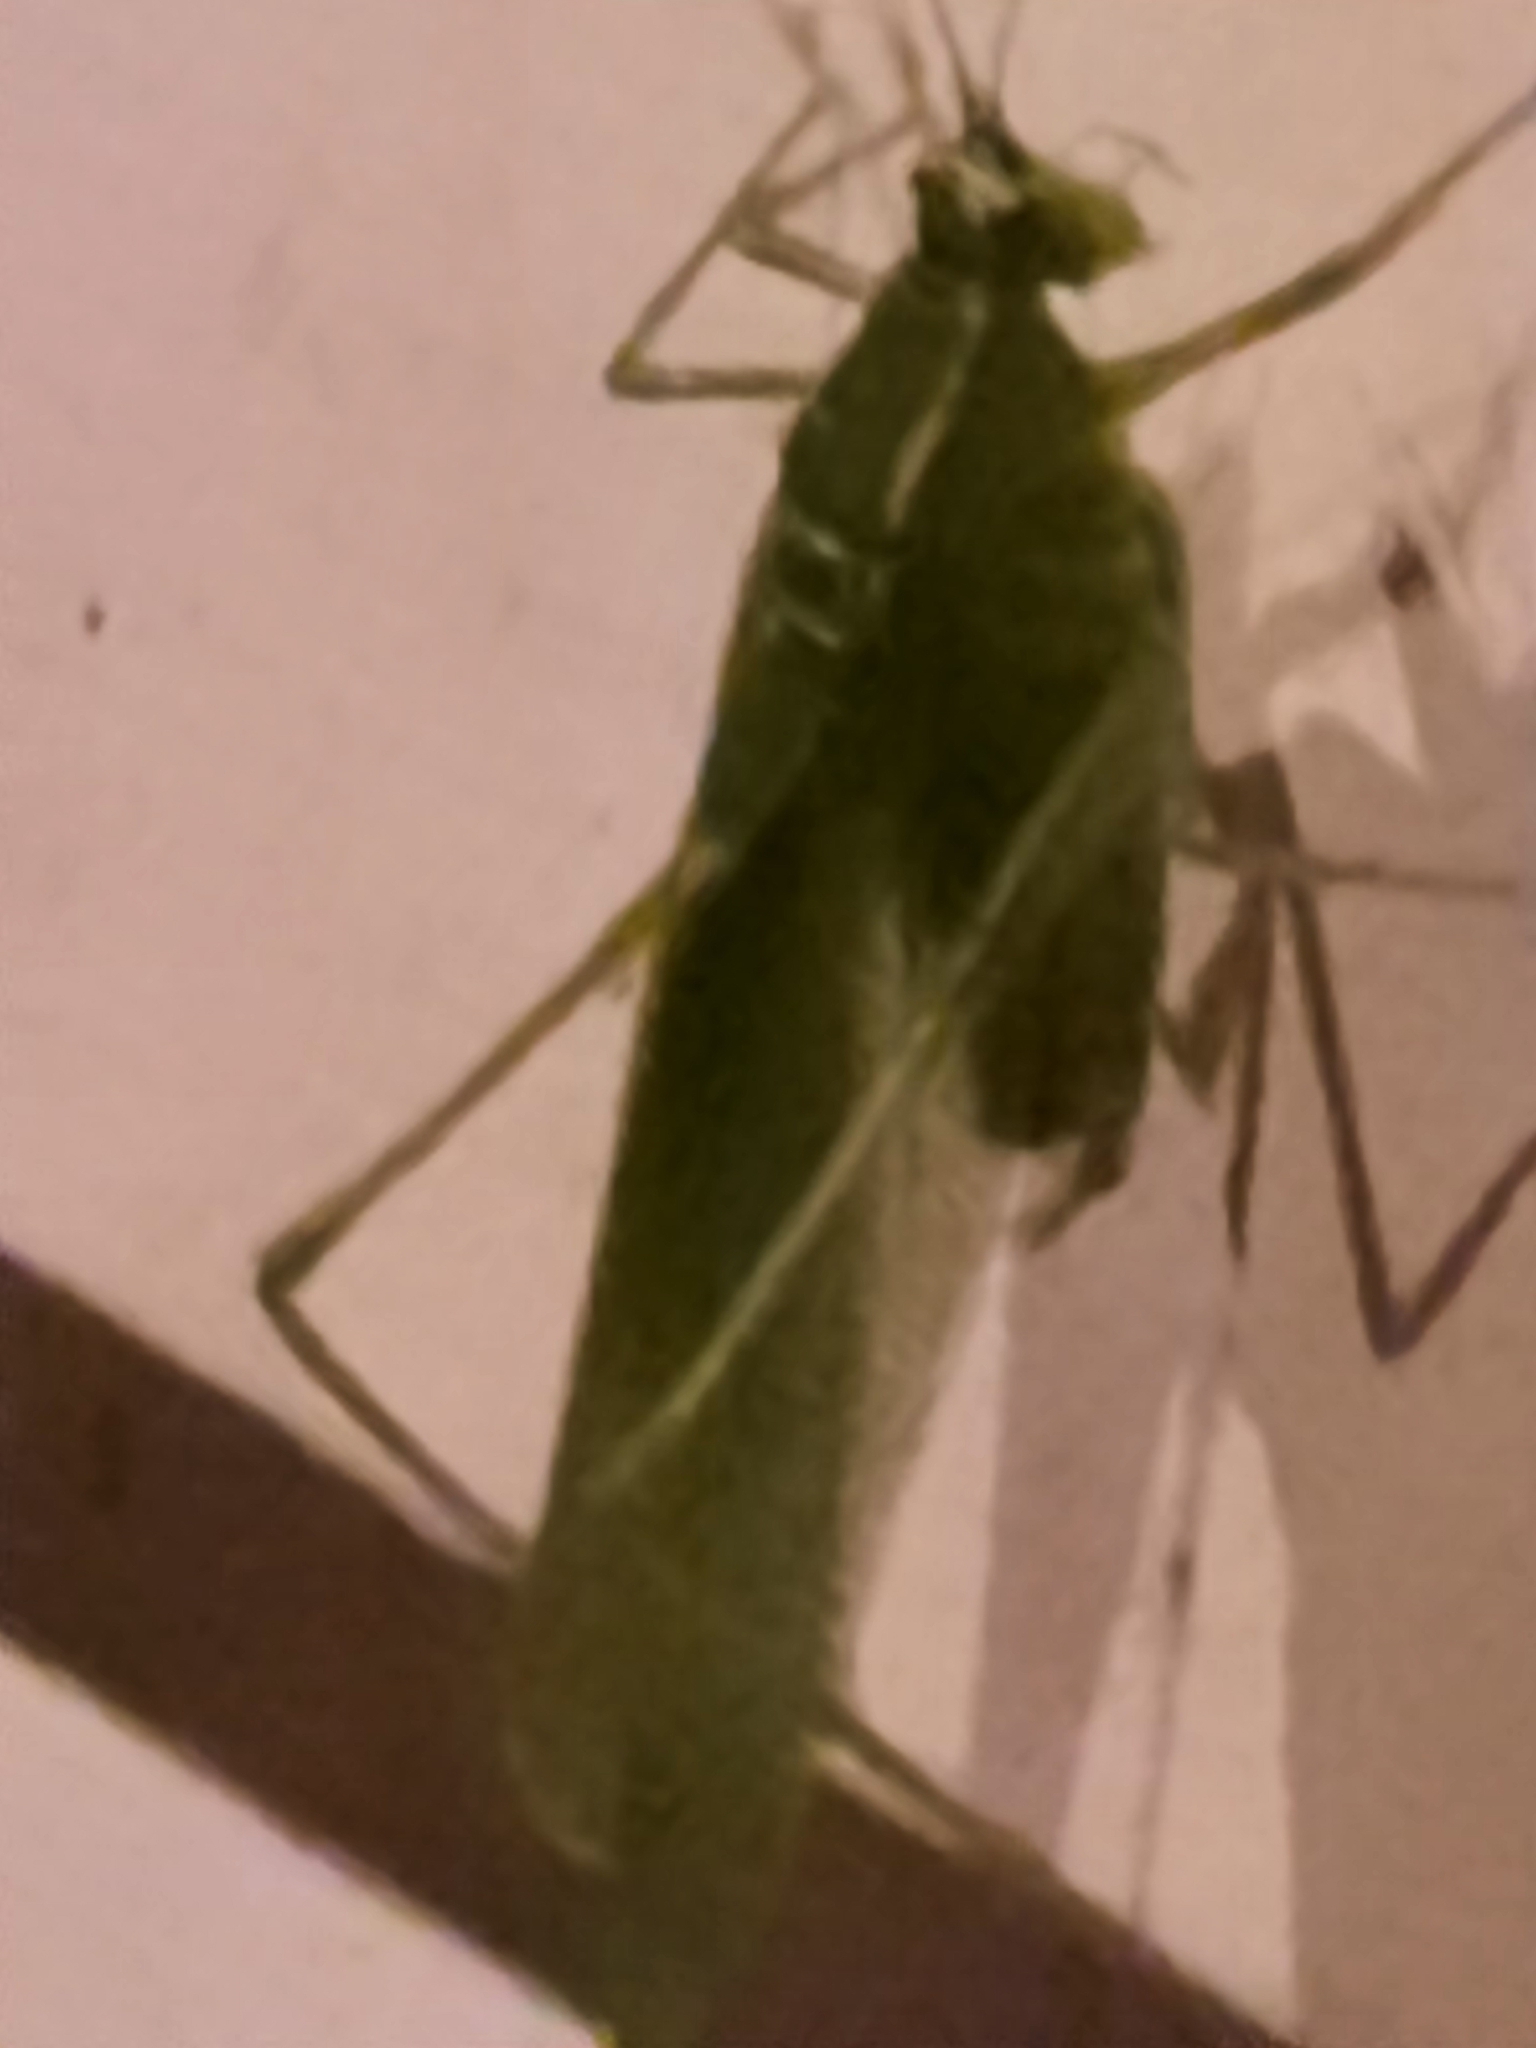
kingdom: Animalia
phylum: Arthropoda
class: Insecta
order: Orthoptera
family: Tettigoniidae
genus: Scudderia
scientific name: Scudderia septentrionalis
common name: Northern bush-katydid
